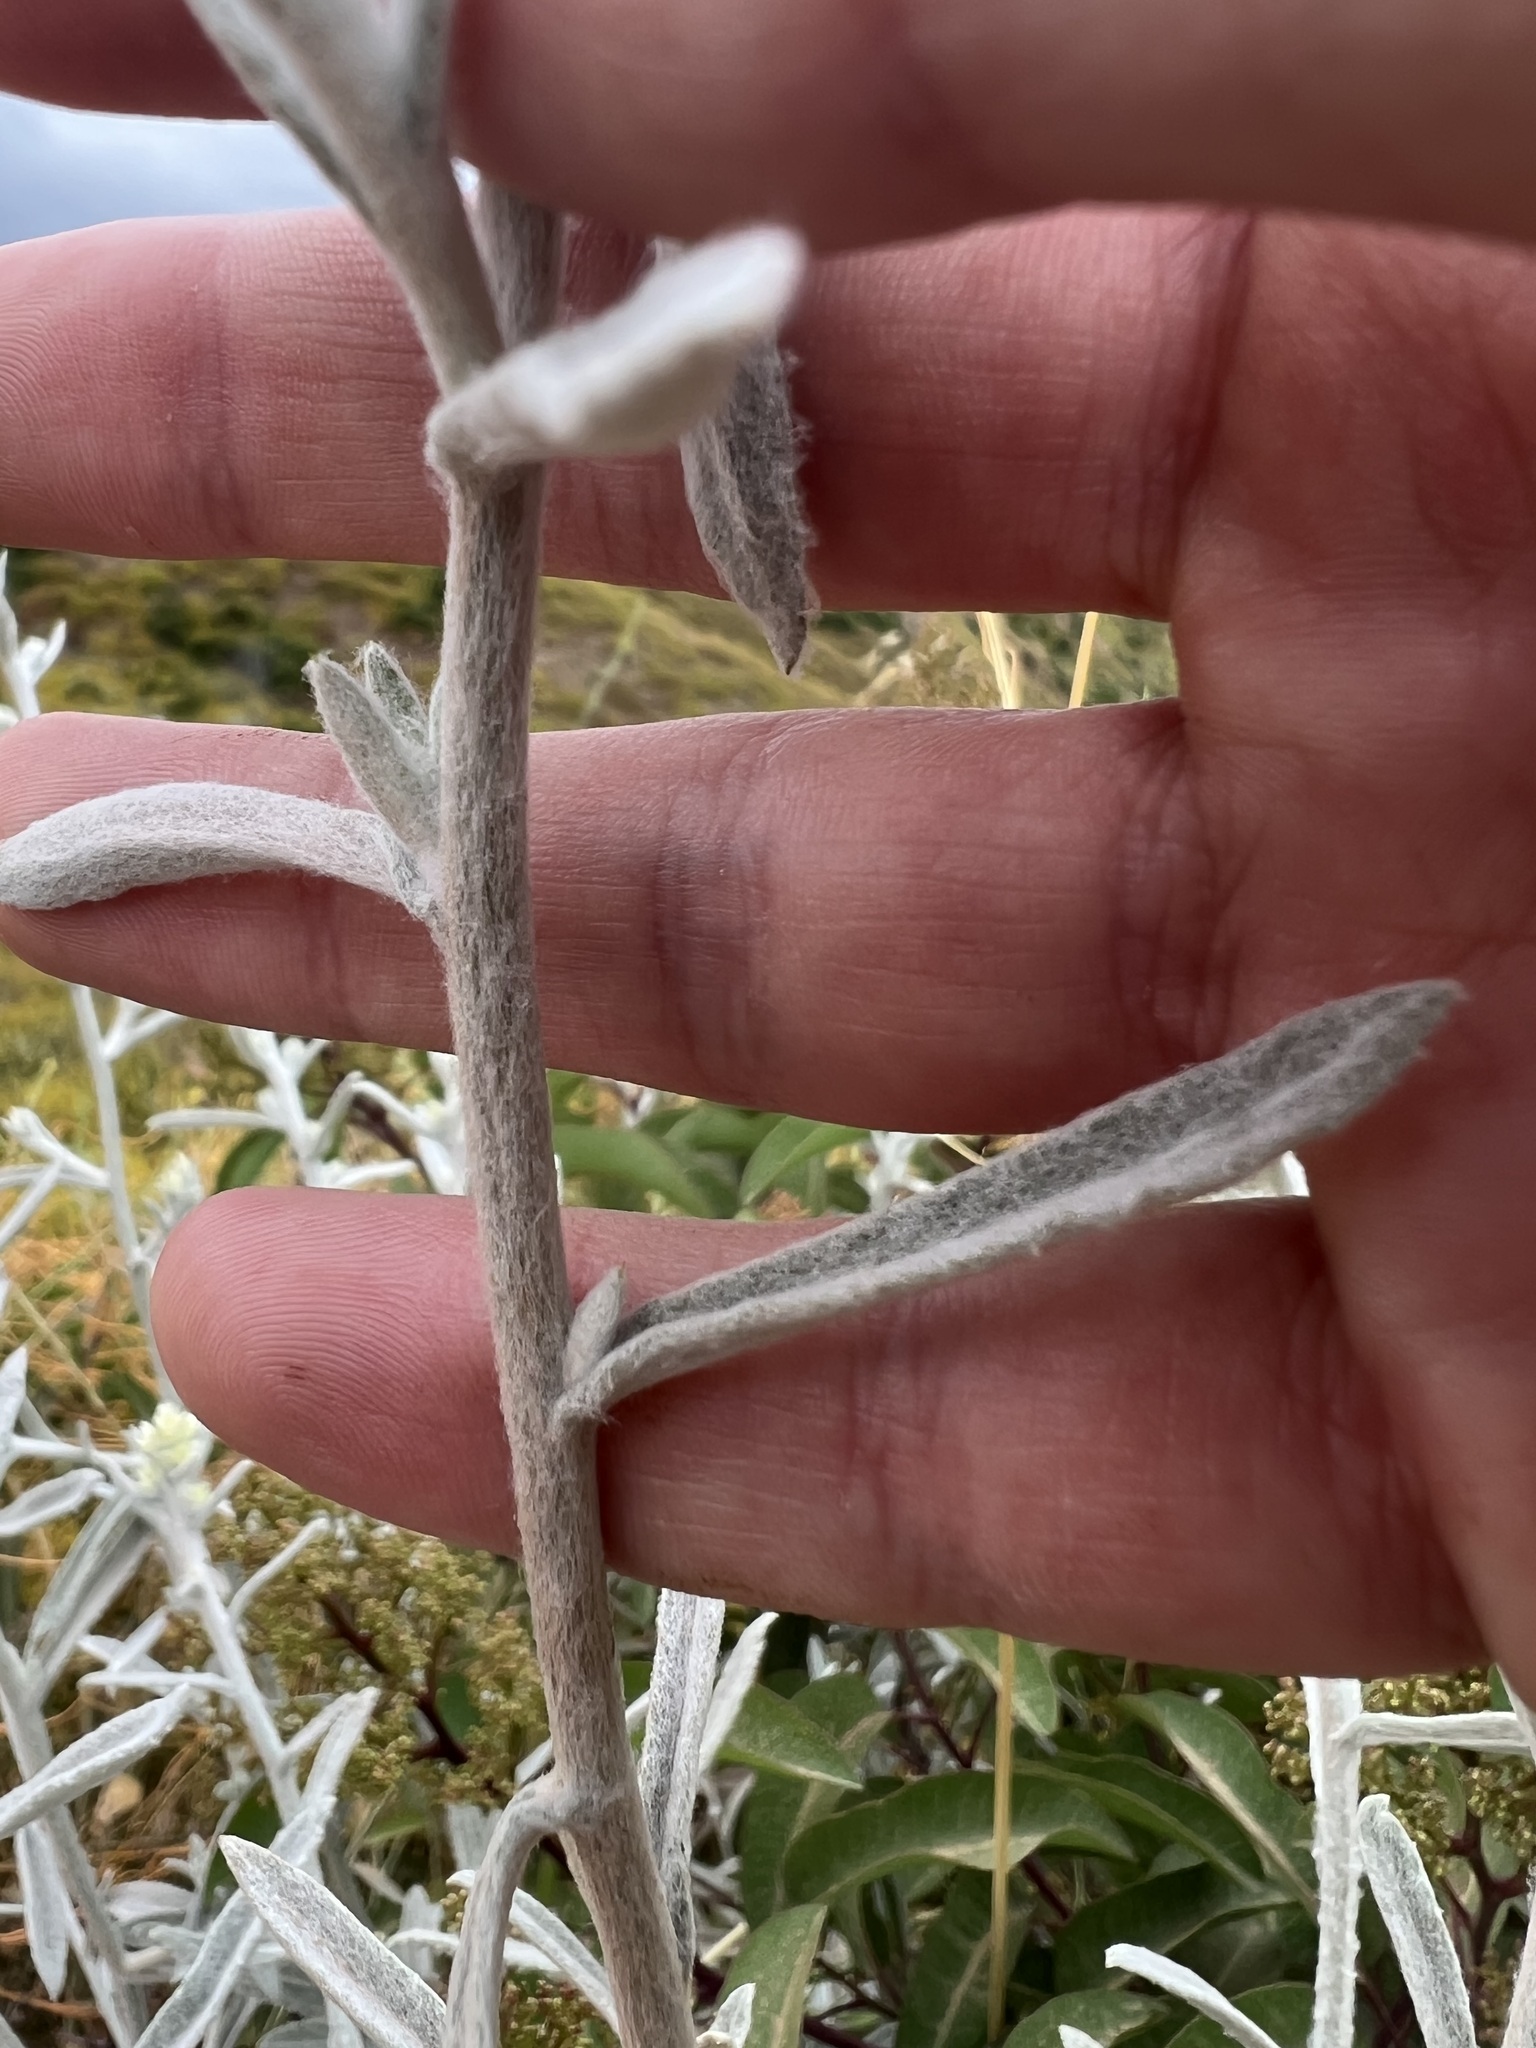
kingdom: Plantae
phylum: Tracheophyta
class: Magnoliopsida
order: Asterales
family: Asteraceae
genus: Pseudognaphalium
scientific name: Pseudognaphalium microcephalum
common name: San diego rabbit-tobacco
